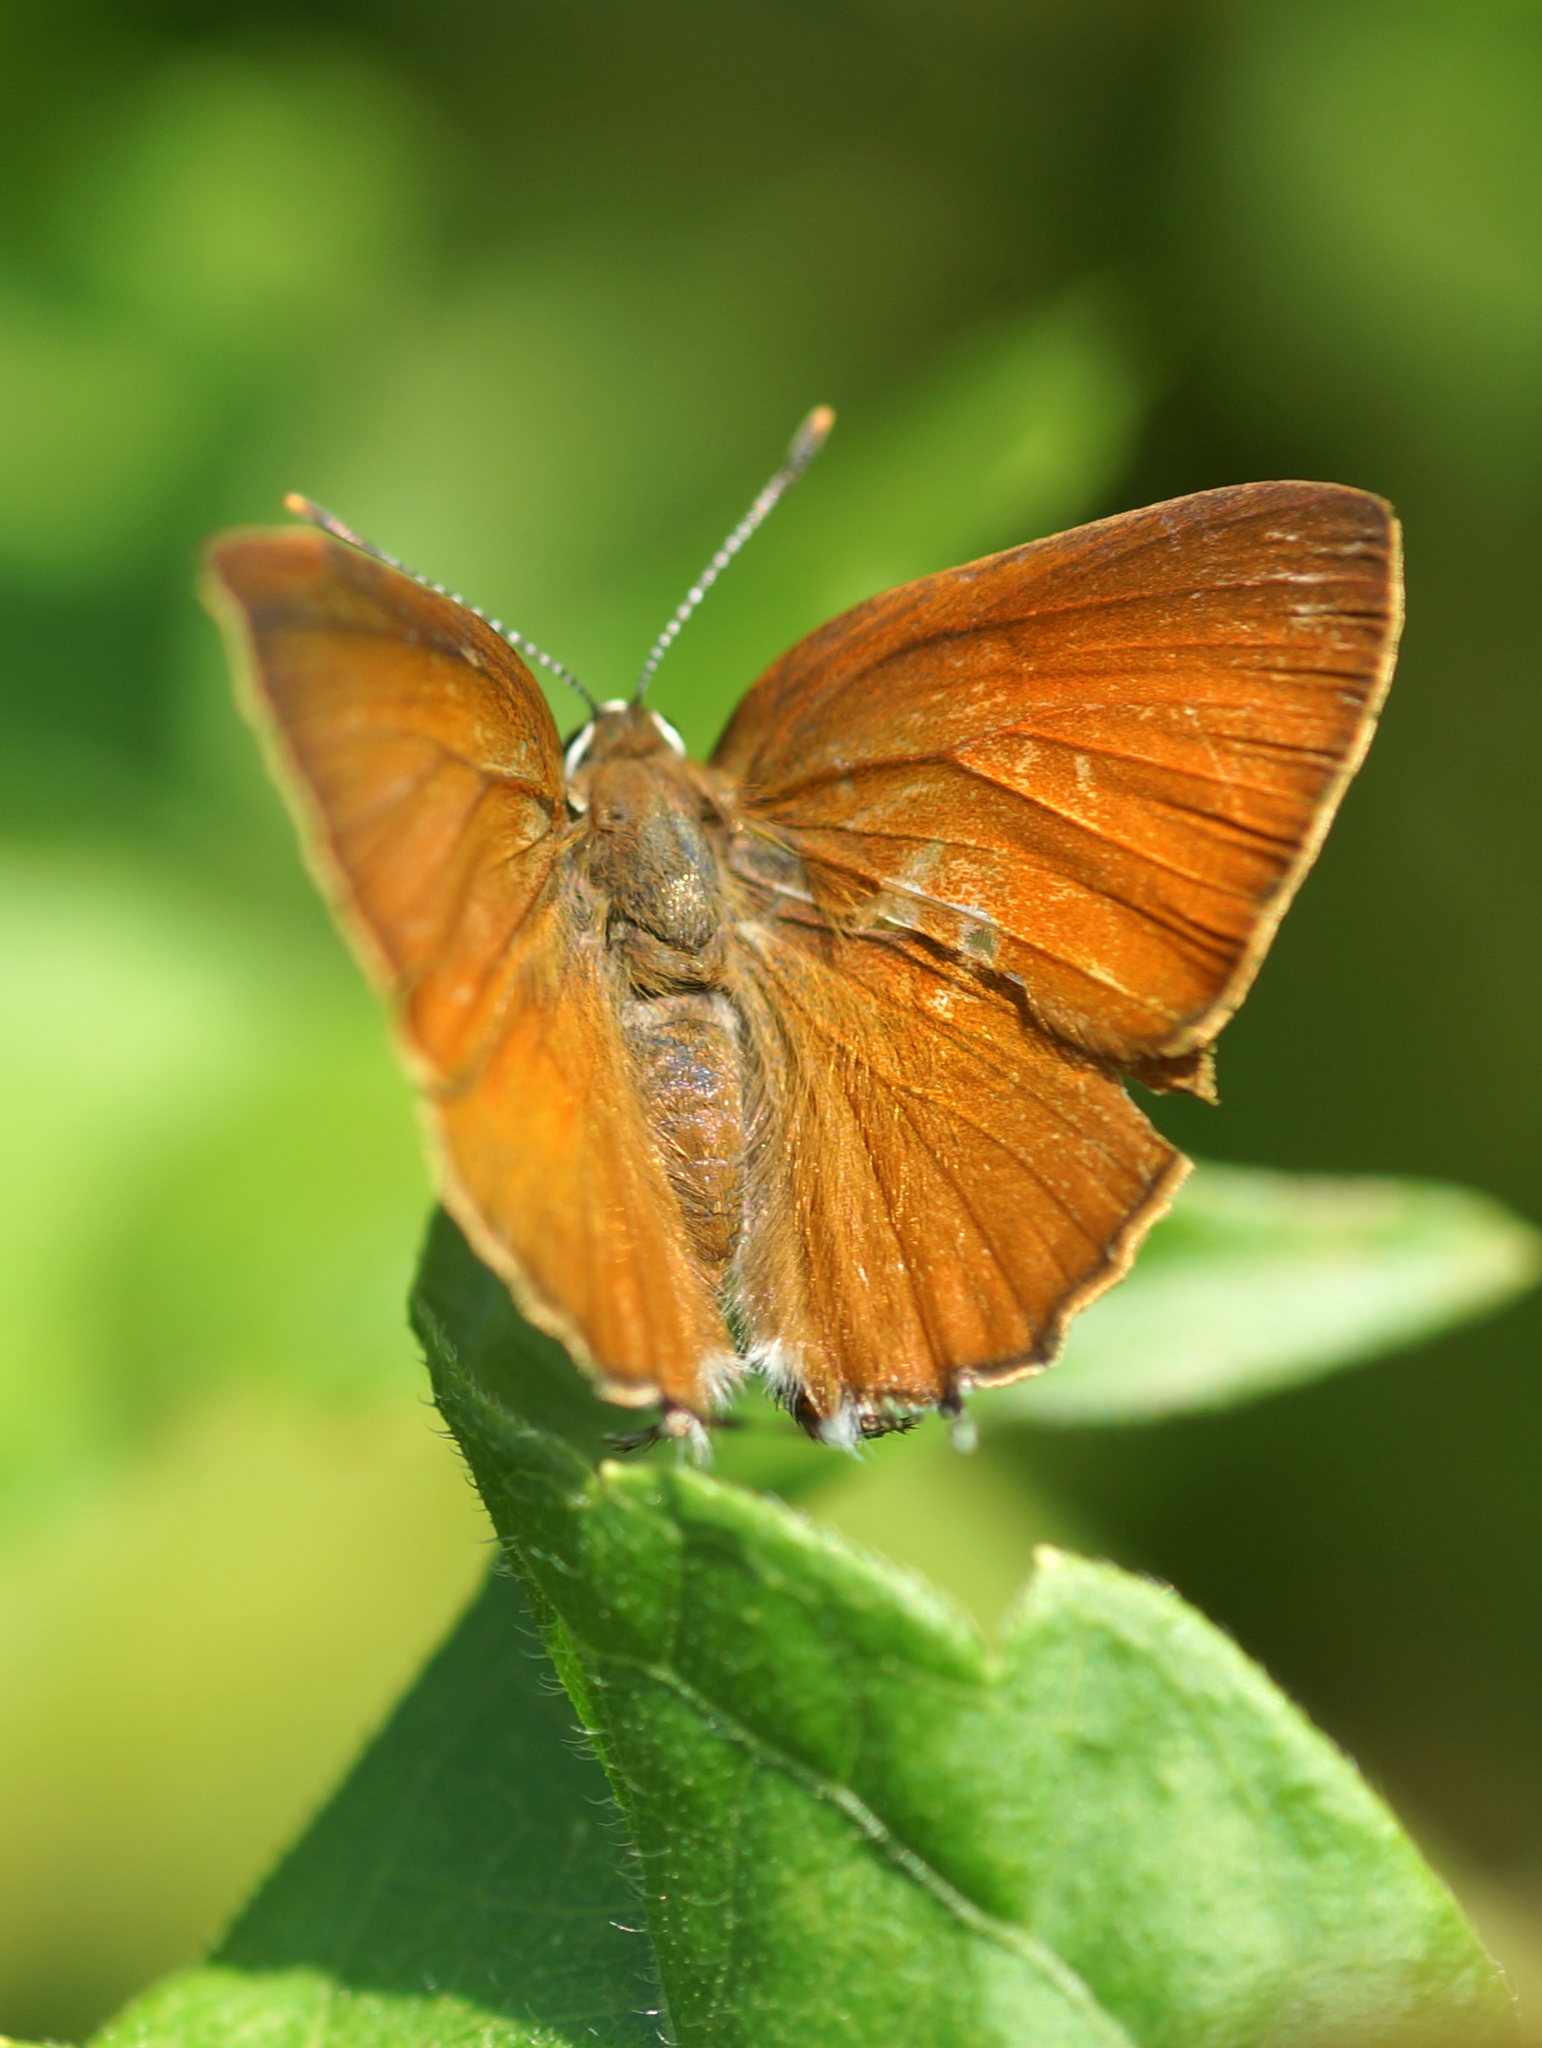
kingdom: Animalia
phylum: Arthropoda
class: Insecta
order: Lepidoptera
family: Lycaenidae
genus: Rapala
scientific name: Rapala iarbas
